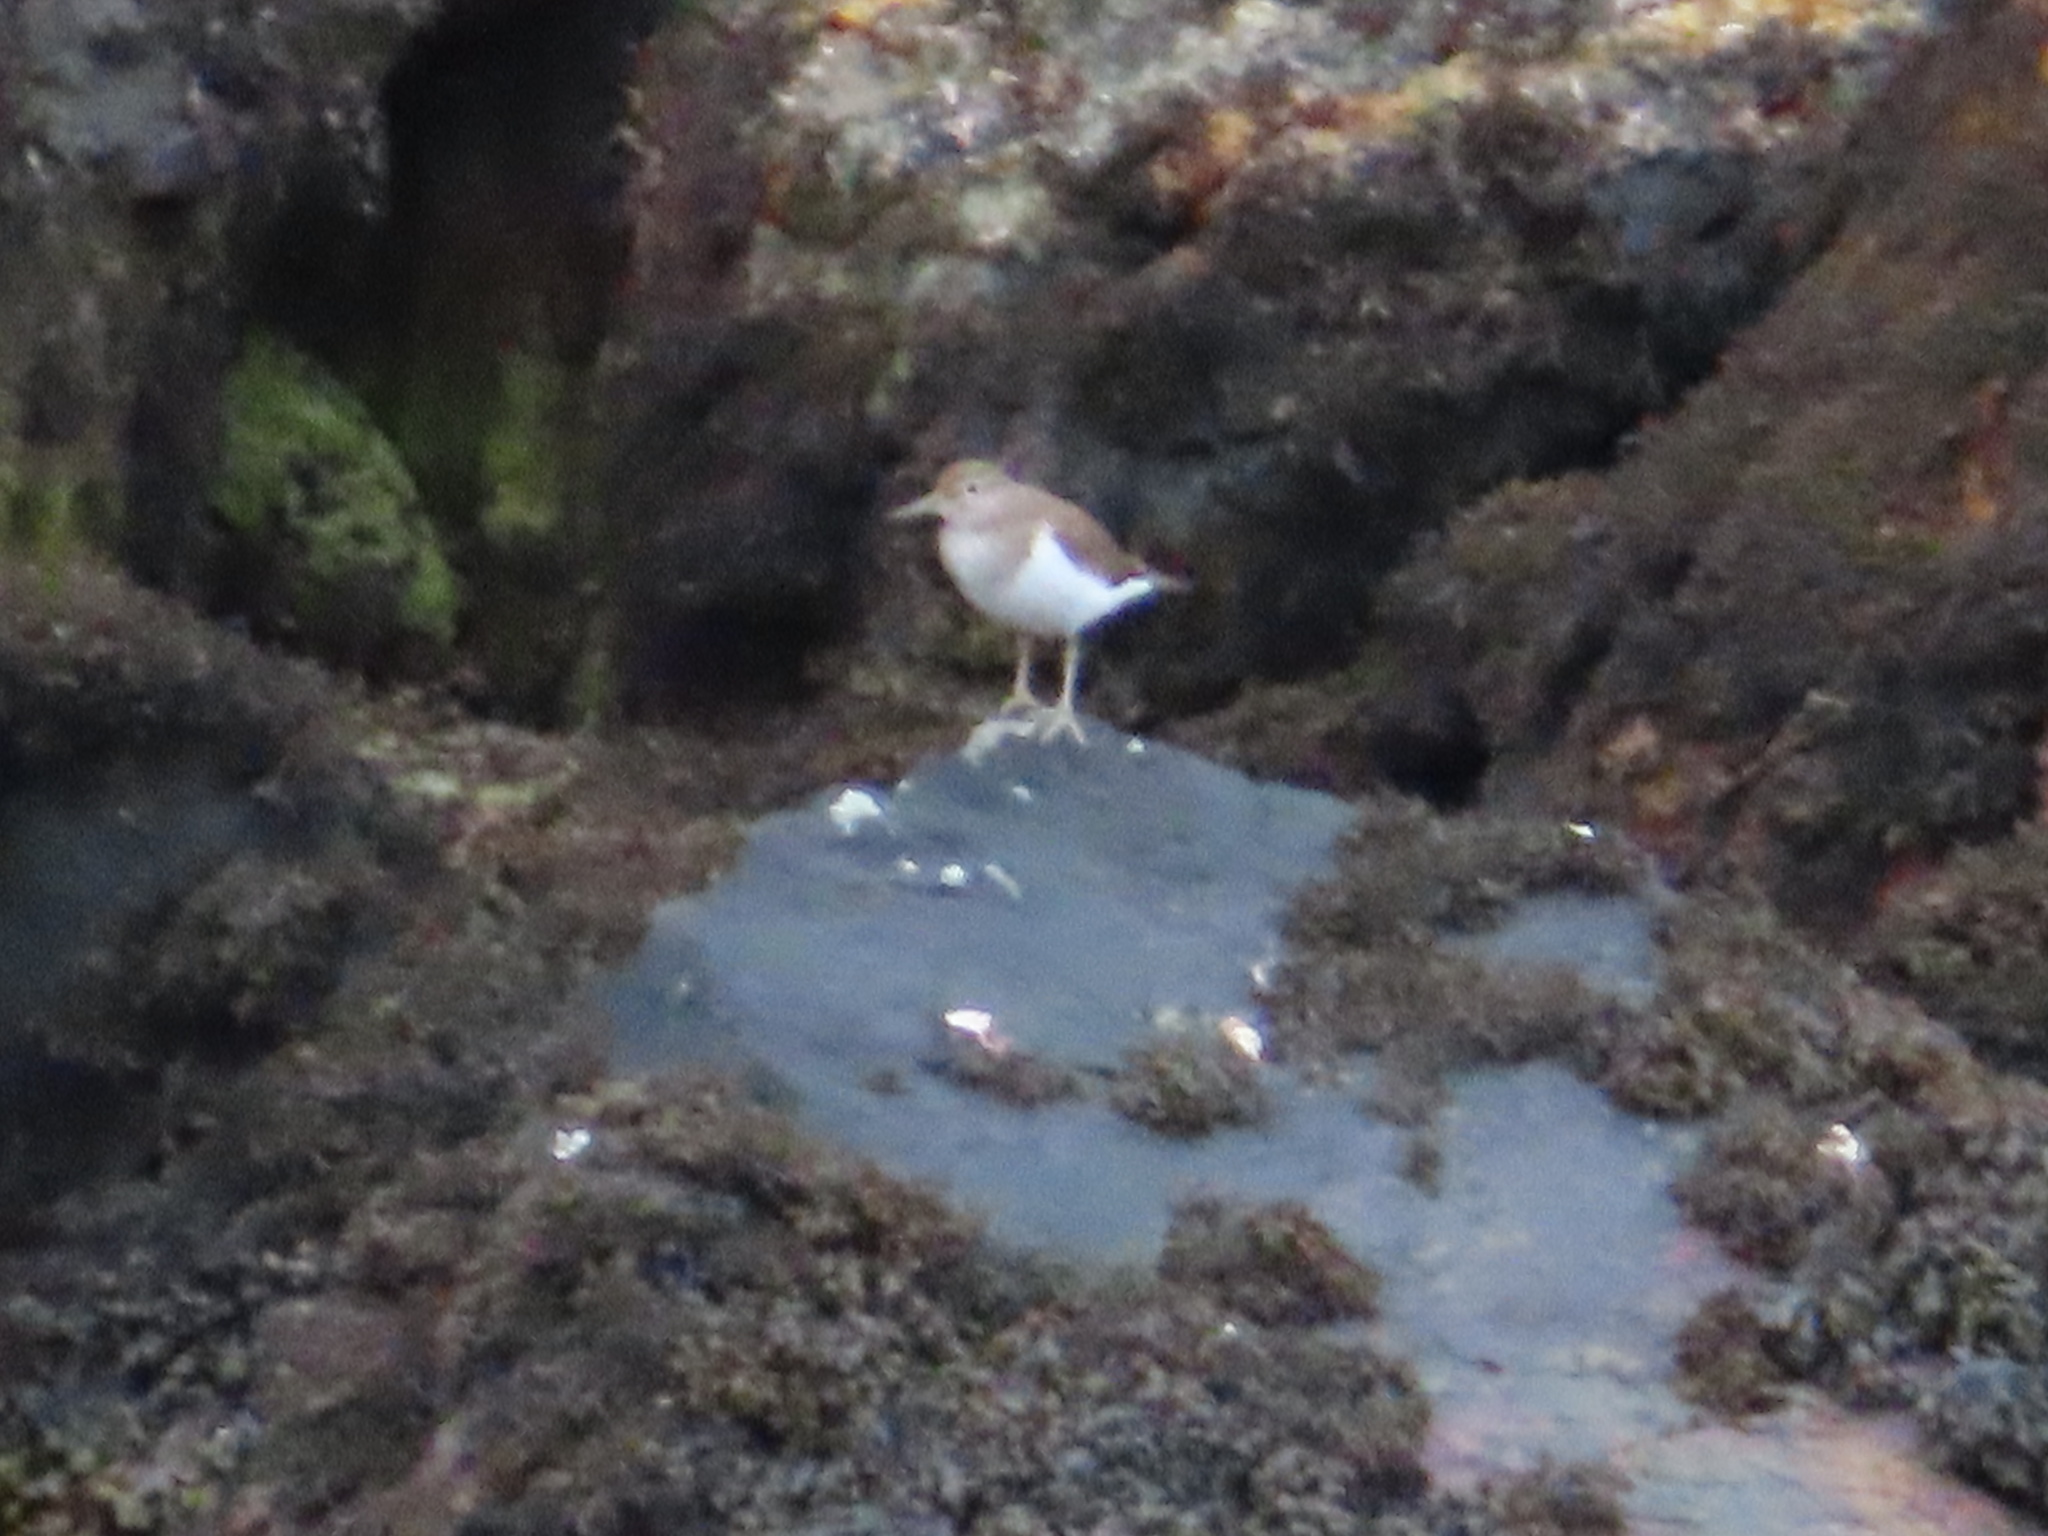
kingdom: Animalia
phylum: Chordata
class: Aves
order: Charadriiformes
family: Scolopacidae
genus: Actitis
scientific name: Actitis hypoleucos
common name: Common sandpiper
